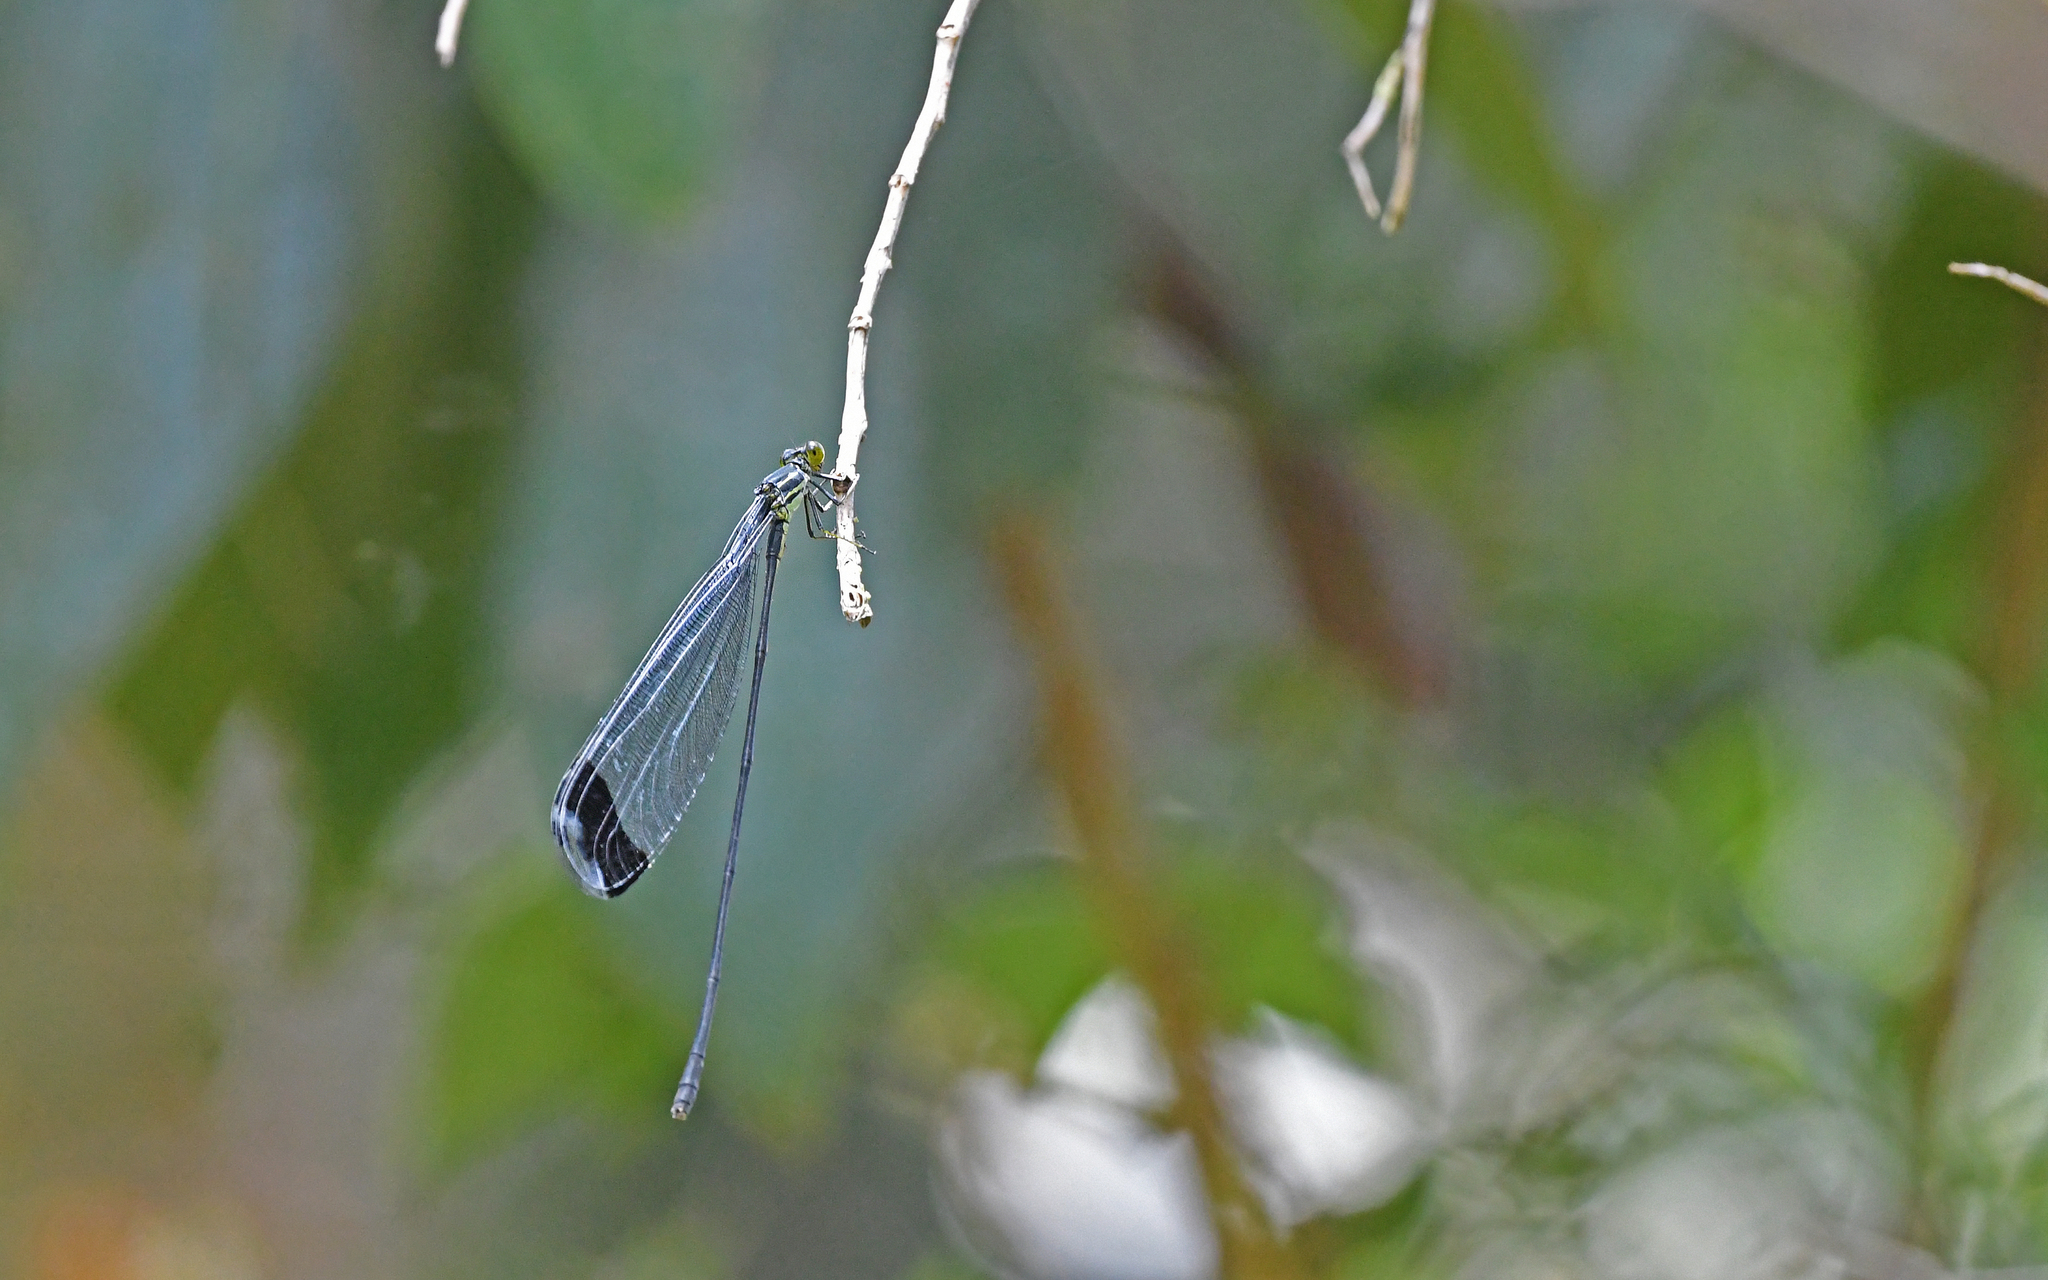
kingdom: Animalia
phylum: Arthropoda
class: Insecta
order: Odonata
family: Coenagrionidae
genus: Megaloprepus
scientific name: Megaloprepus brevistigma
